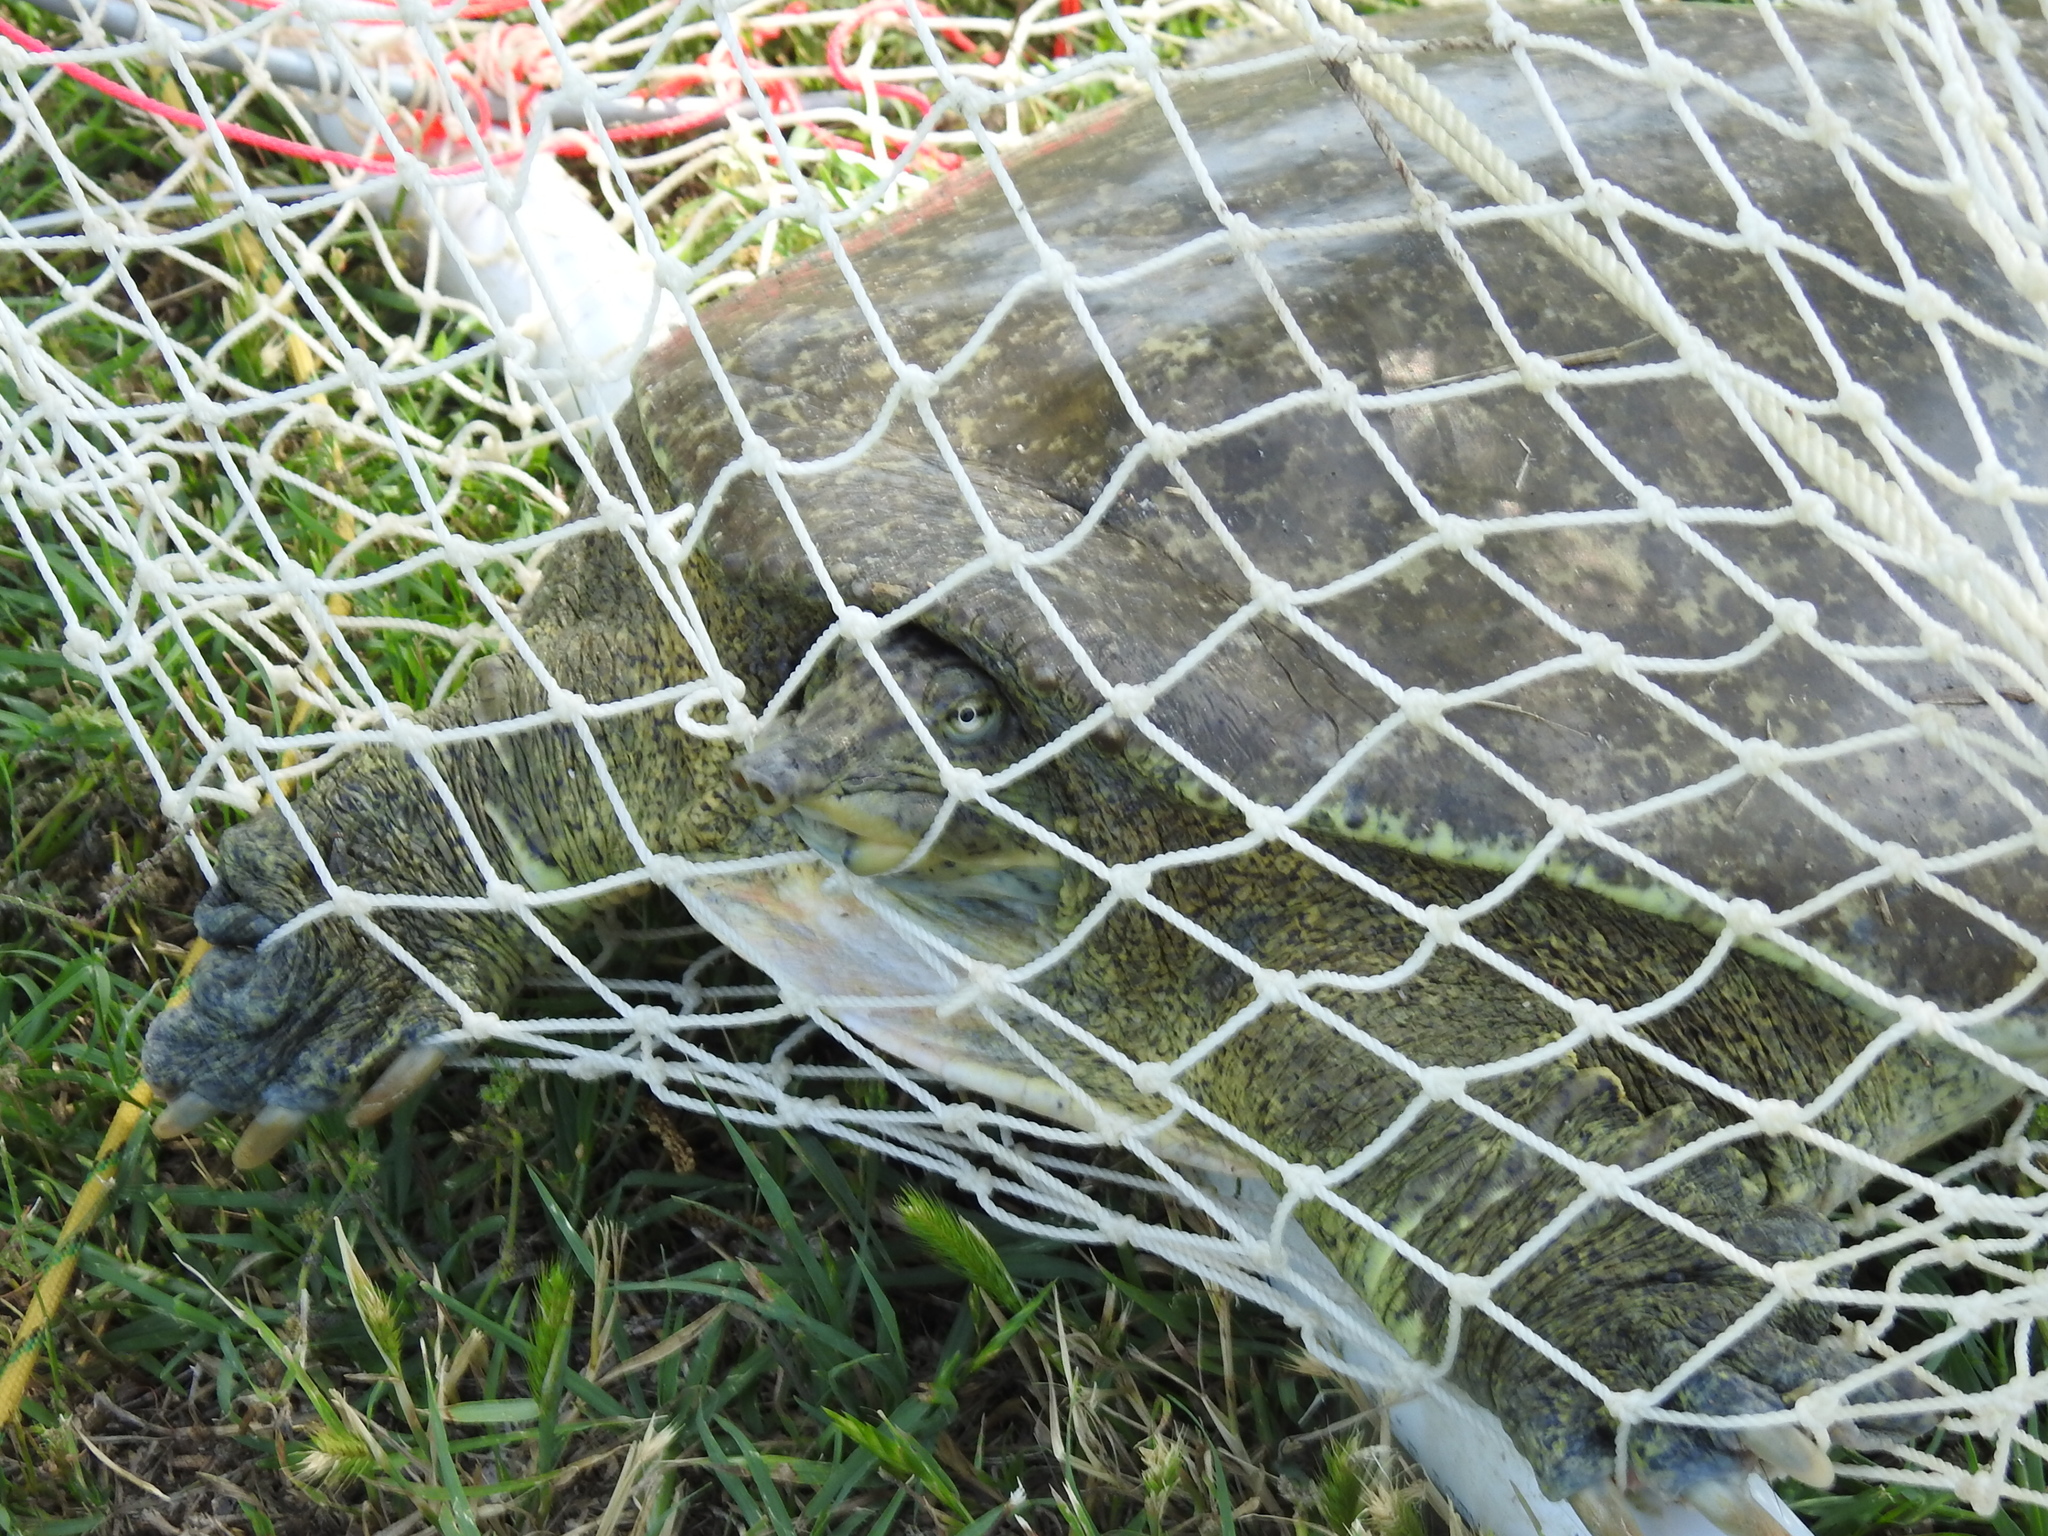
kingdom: Animalia
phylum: Chordata
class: Testudines
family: Trionychidae
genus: Apalone
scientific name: Apalone spinifera
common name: Spiny softshell turtle
